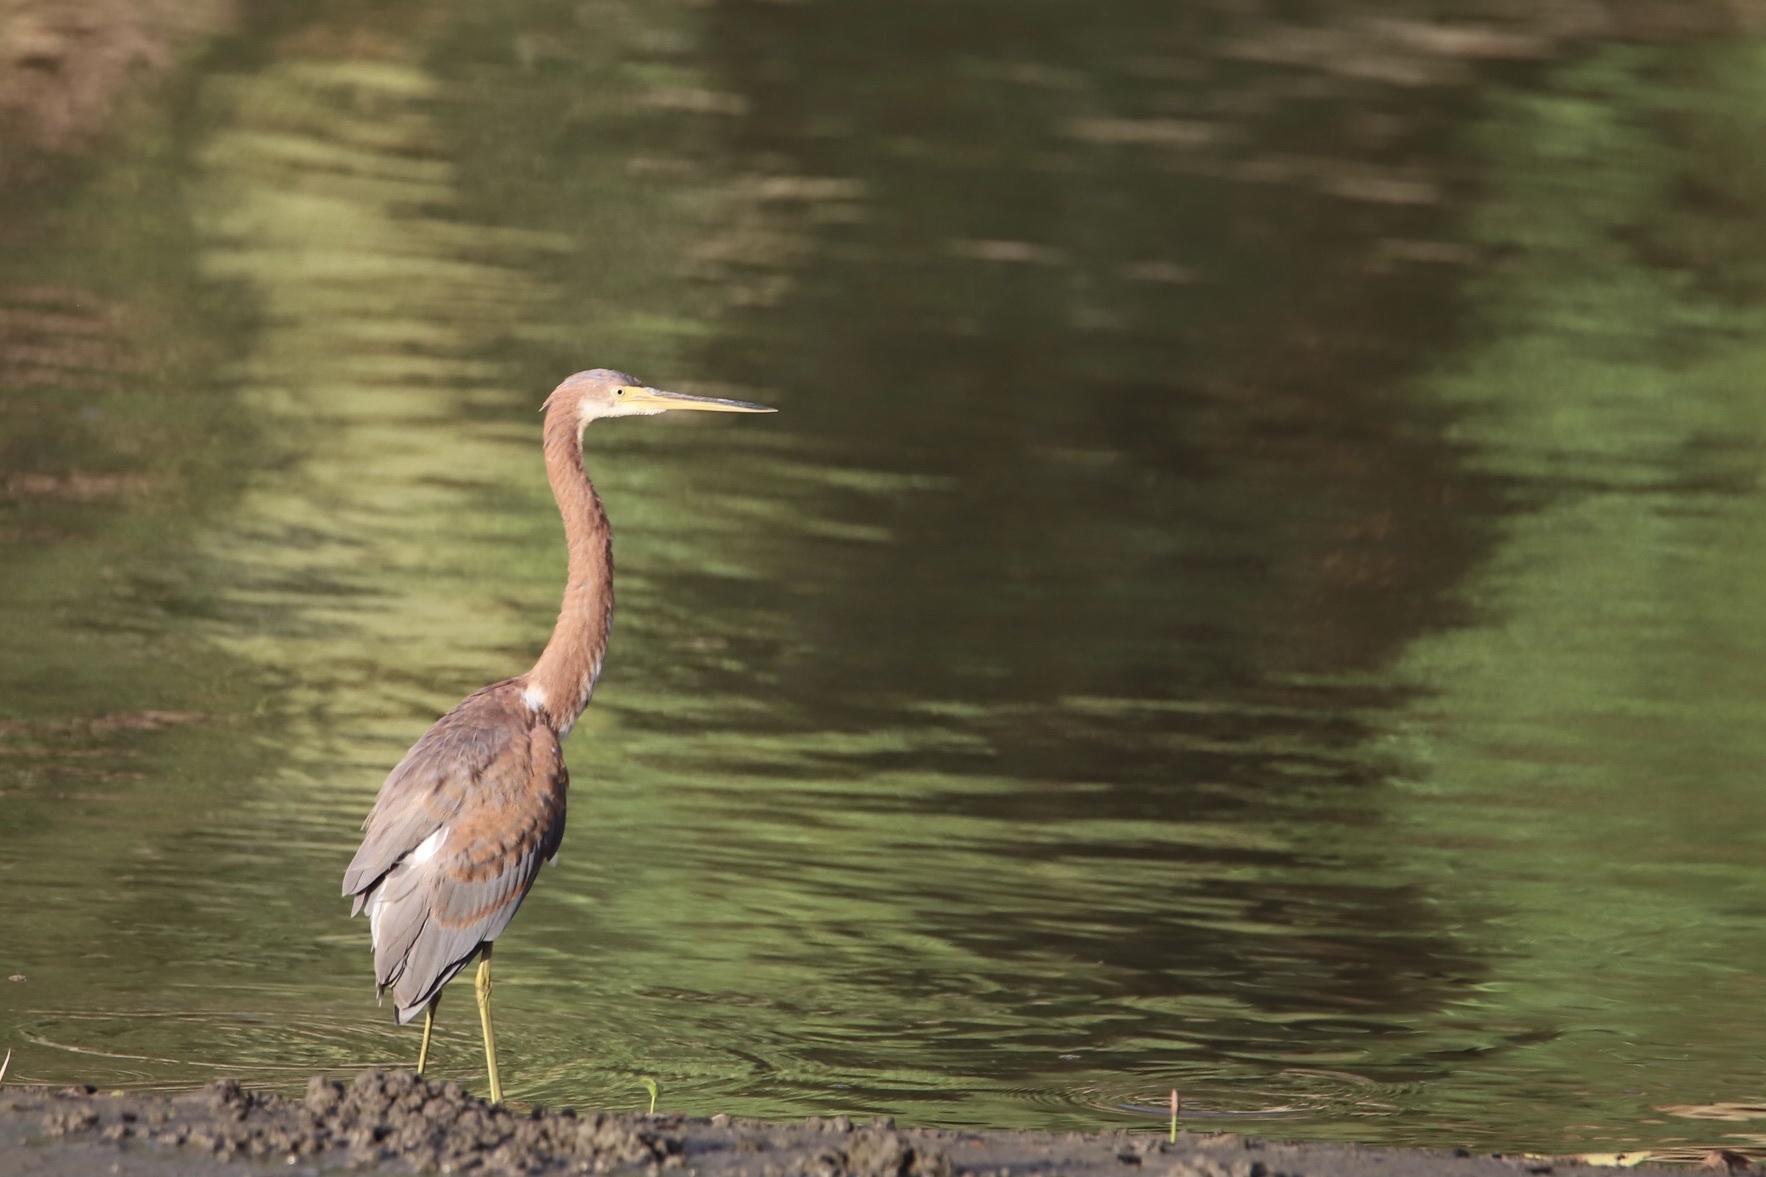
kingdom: Animalia
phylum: Chordata
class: Aves
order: Pelecaniformes
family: Ardeidae
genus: Egretta
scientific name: Egretta tricolor
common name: Tricolored heron
